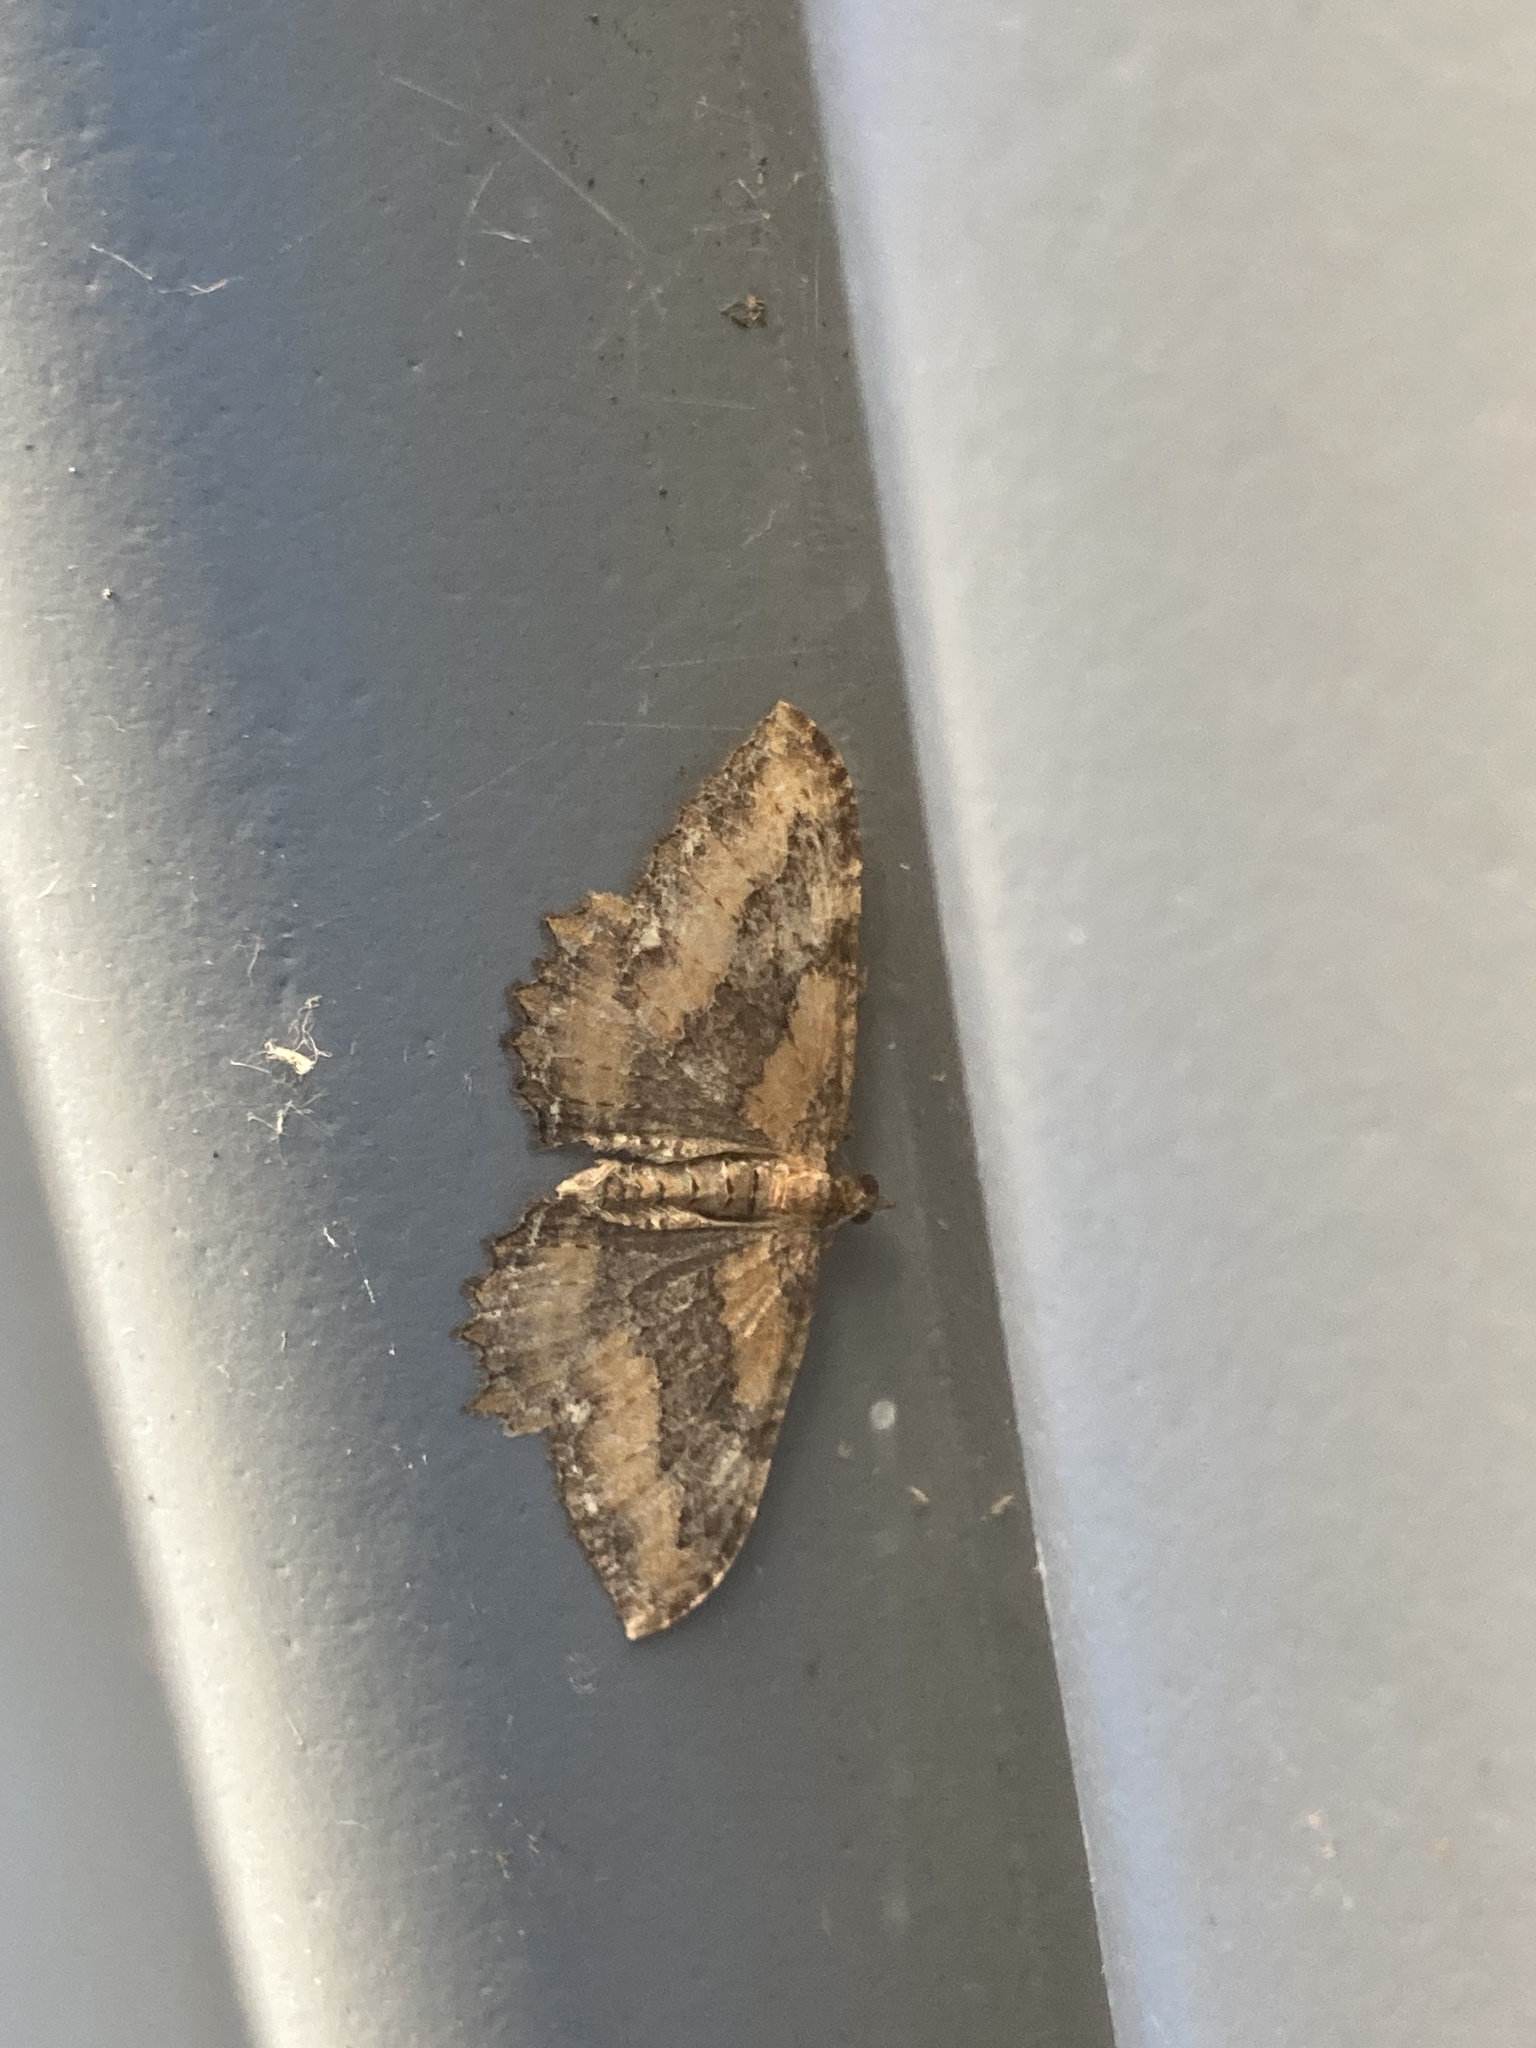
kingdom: Animalia
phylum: Arthropoda
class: Insecta
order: Lepidoptera
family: Geometridae
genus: Rheumaptera
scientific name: Rheumaptera
